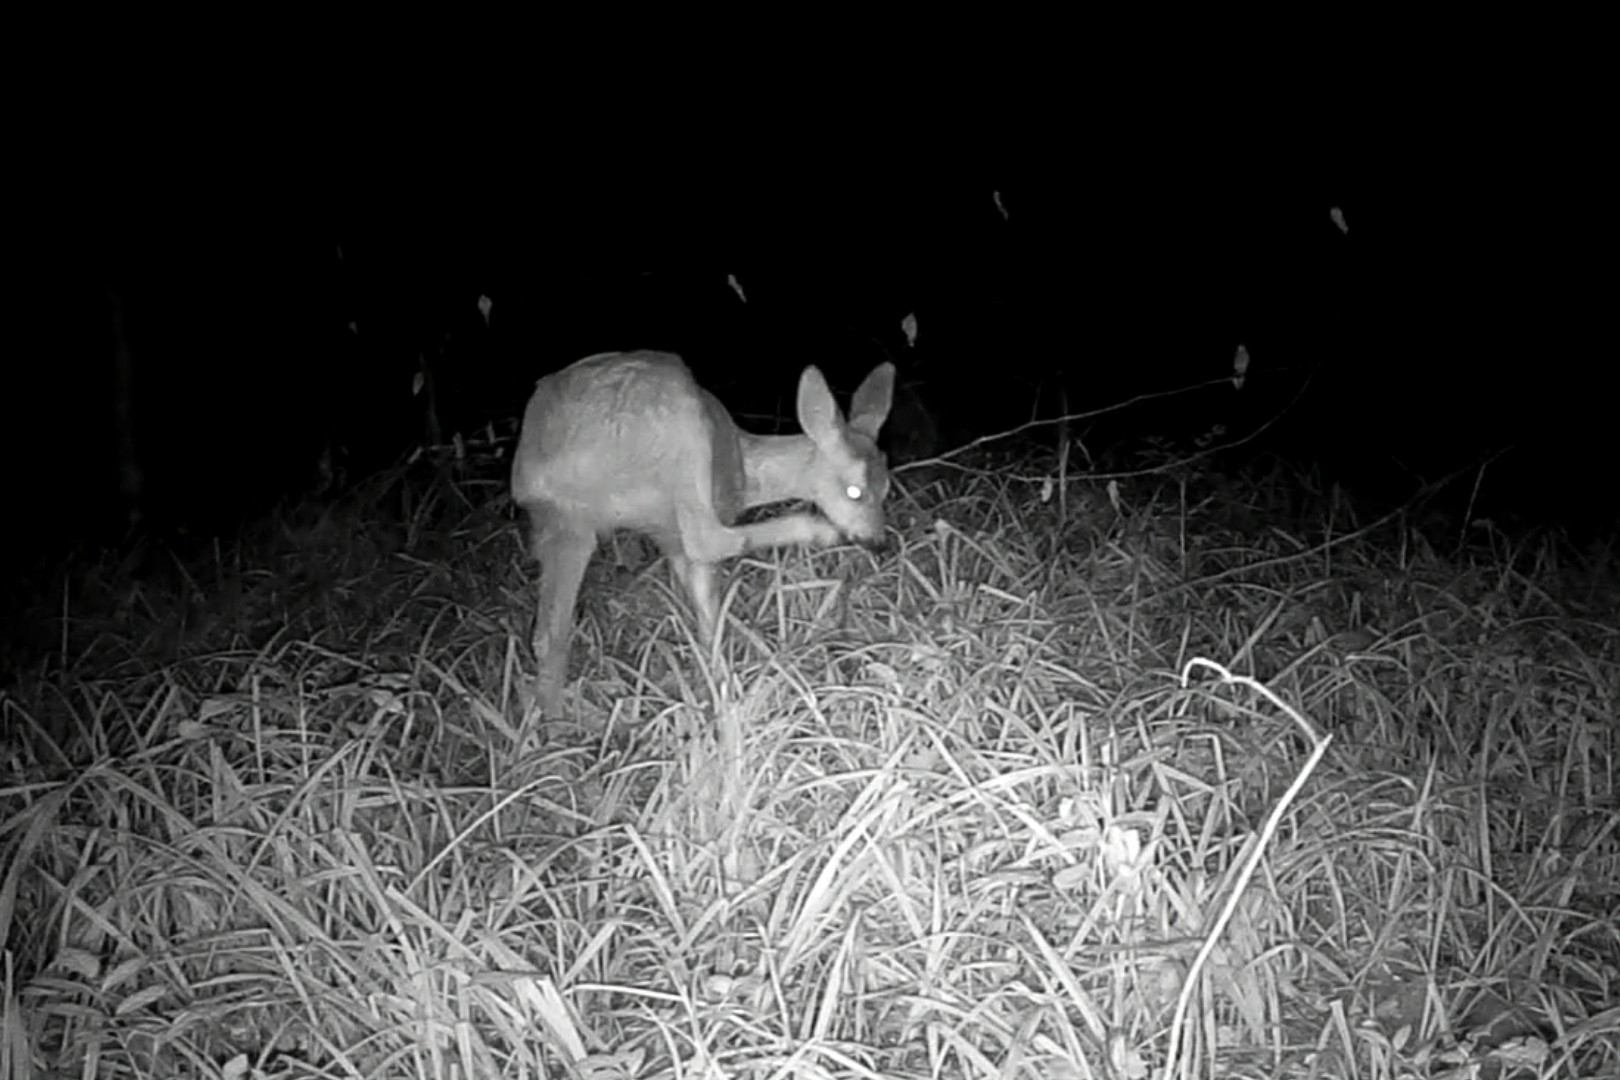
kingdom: Animalia
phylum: Chordata
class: Mammalia
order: Artiodactyla
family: Cervidae
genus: Capreolus
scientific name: Capreolus capreolus
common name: Western roe deer
